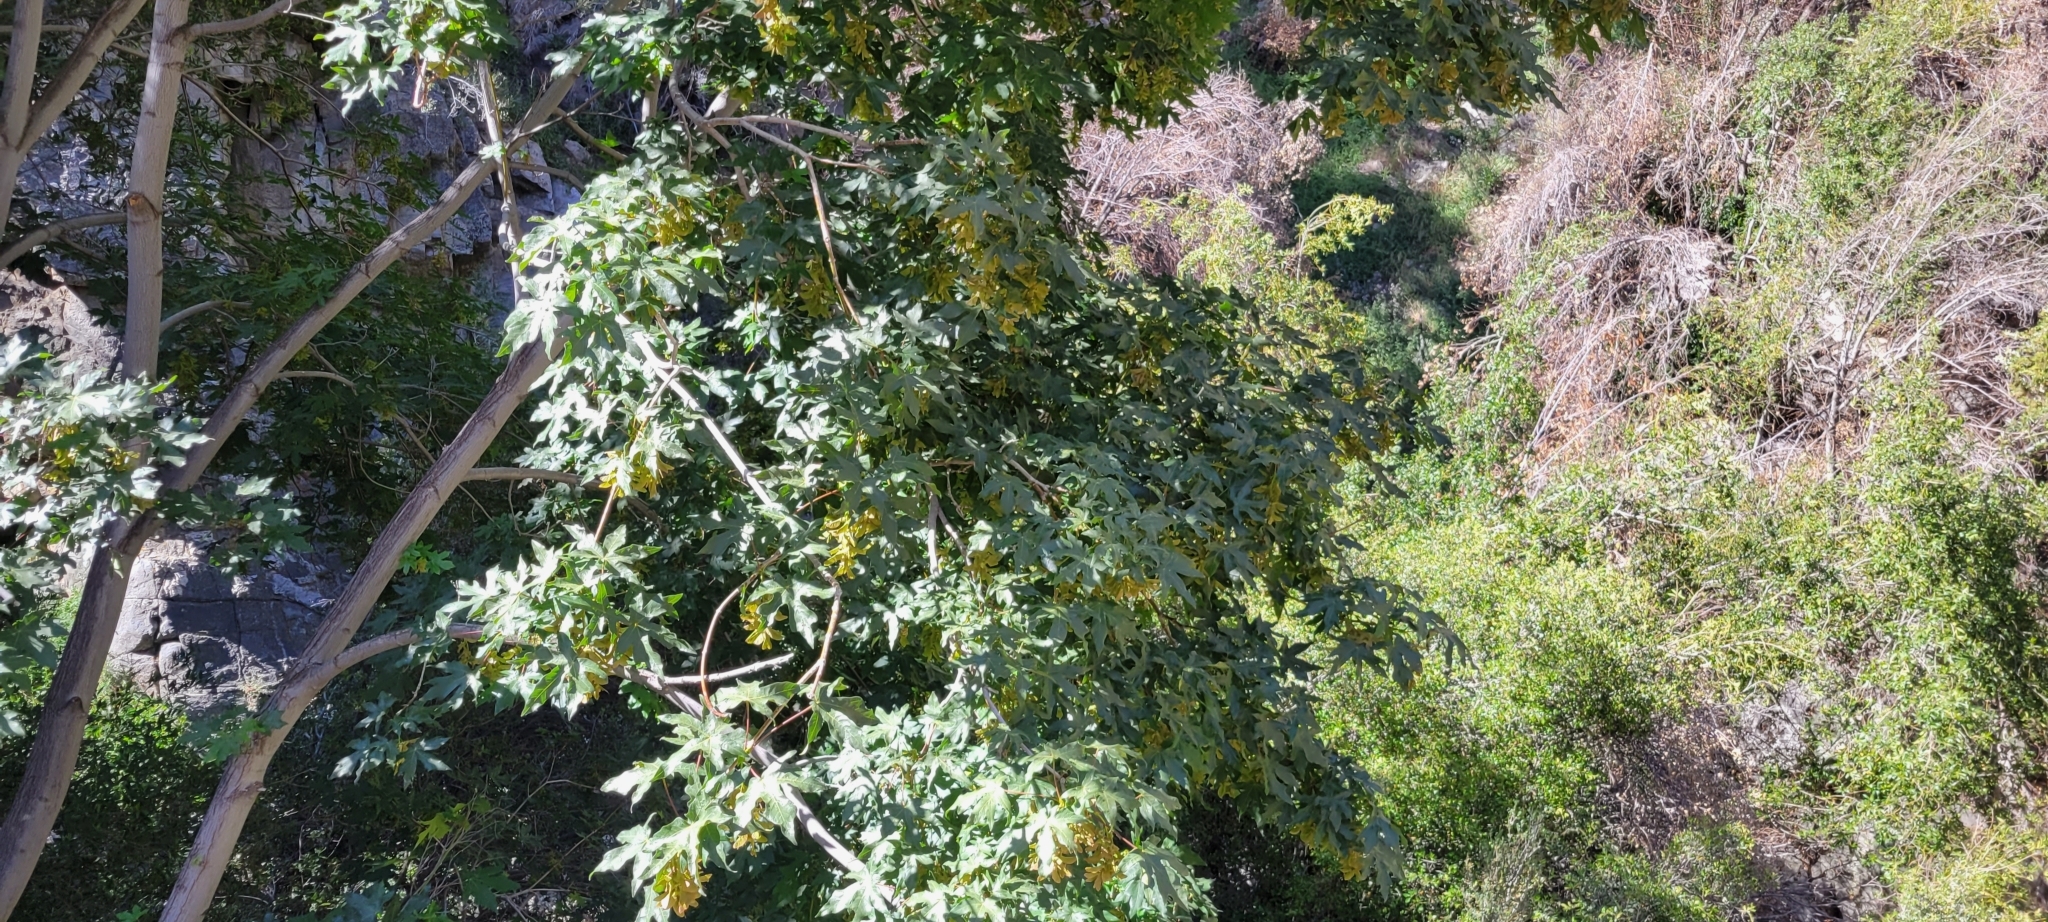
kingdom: Plantae
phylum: Tracheophyta
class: Magnoliopsida
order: Sapindales
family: Sapindaceae
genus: Acer
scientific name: Acer macrophyllum
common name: Oregon maple
